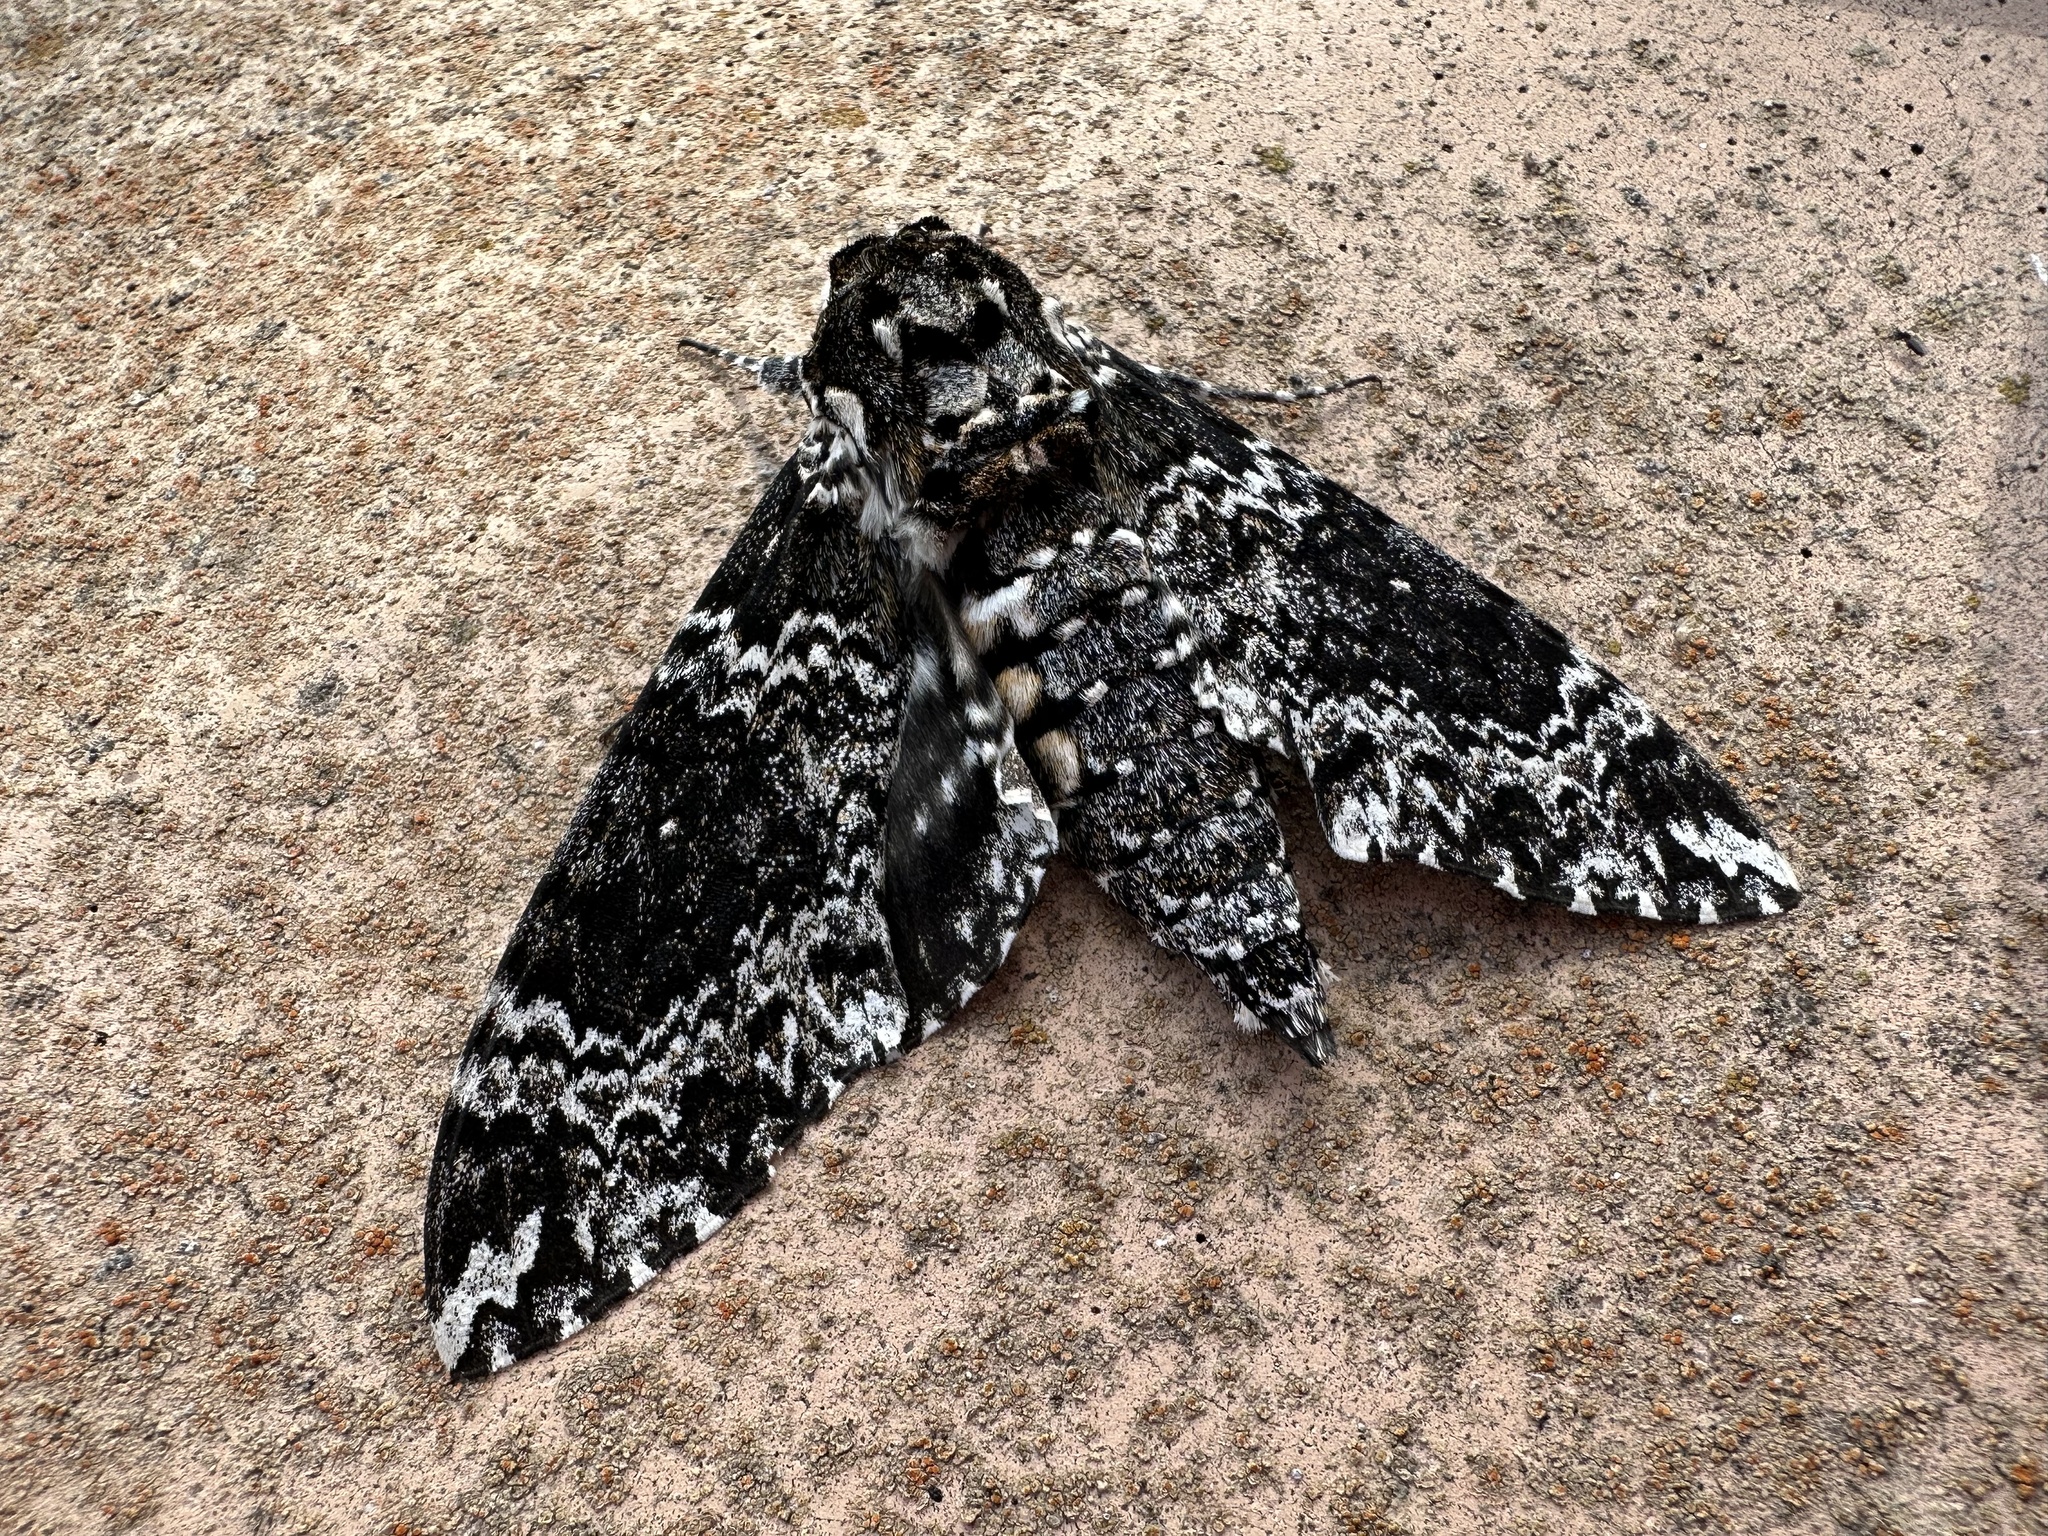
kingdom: Animalia
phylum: Arthropoda
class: Insecta
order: Lepidoptera
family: Sphingidae
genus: Manduca
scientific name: Manduca rustica
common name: Rustic sphinx
